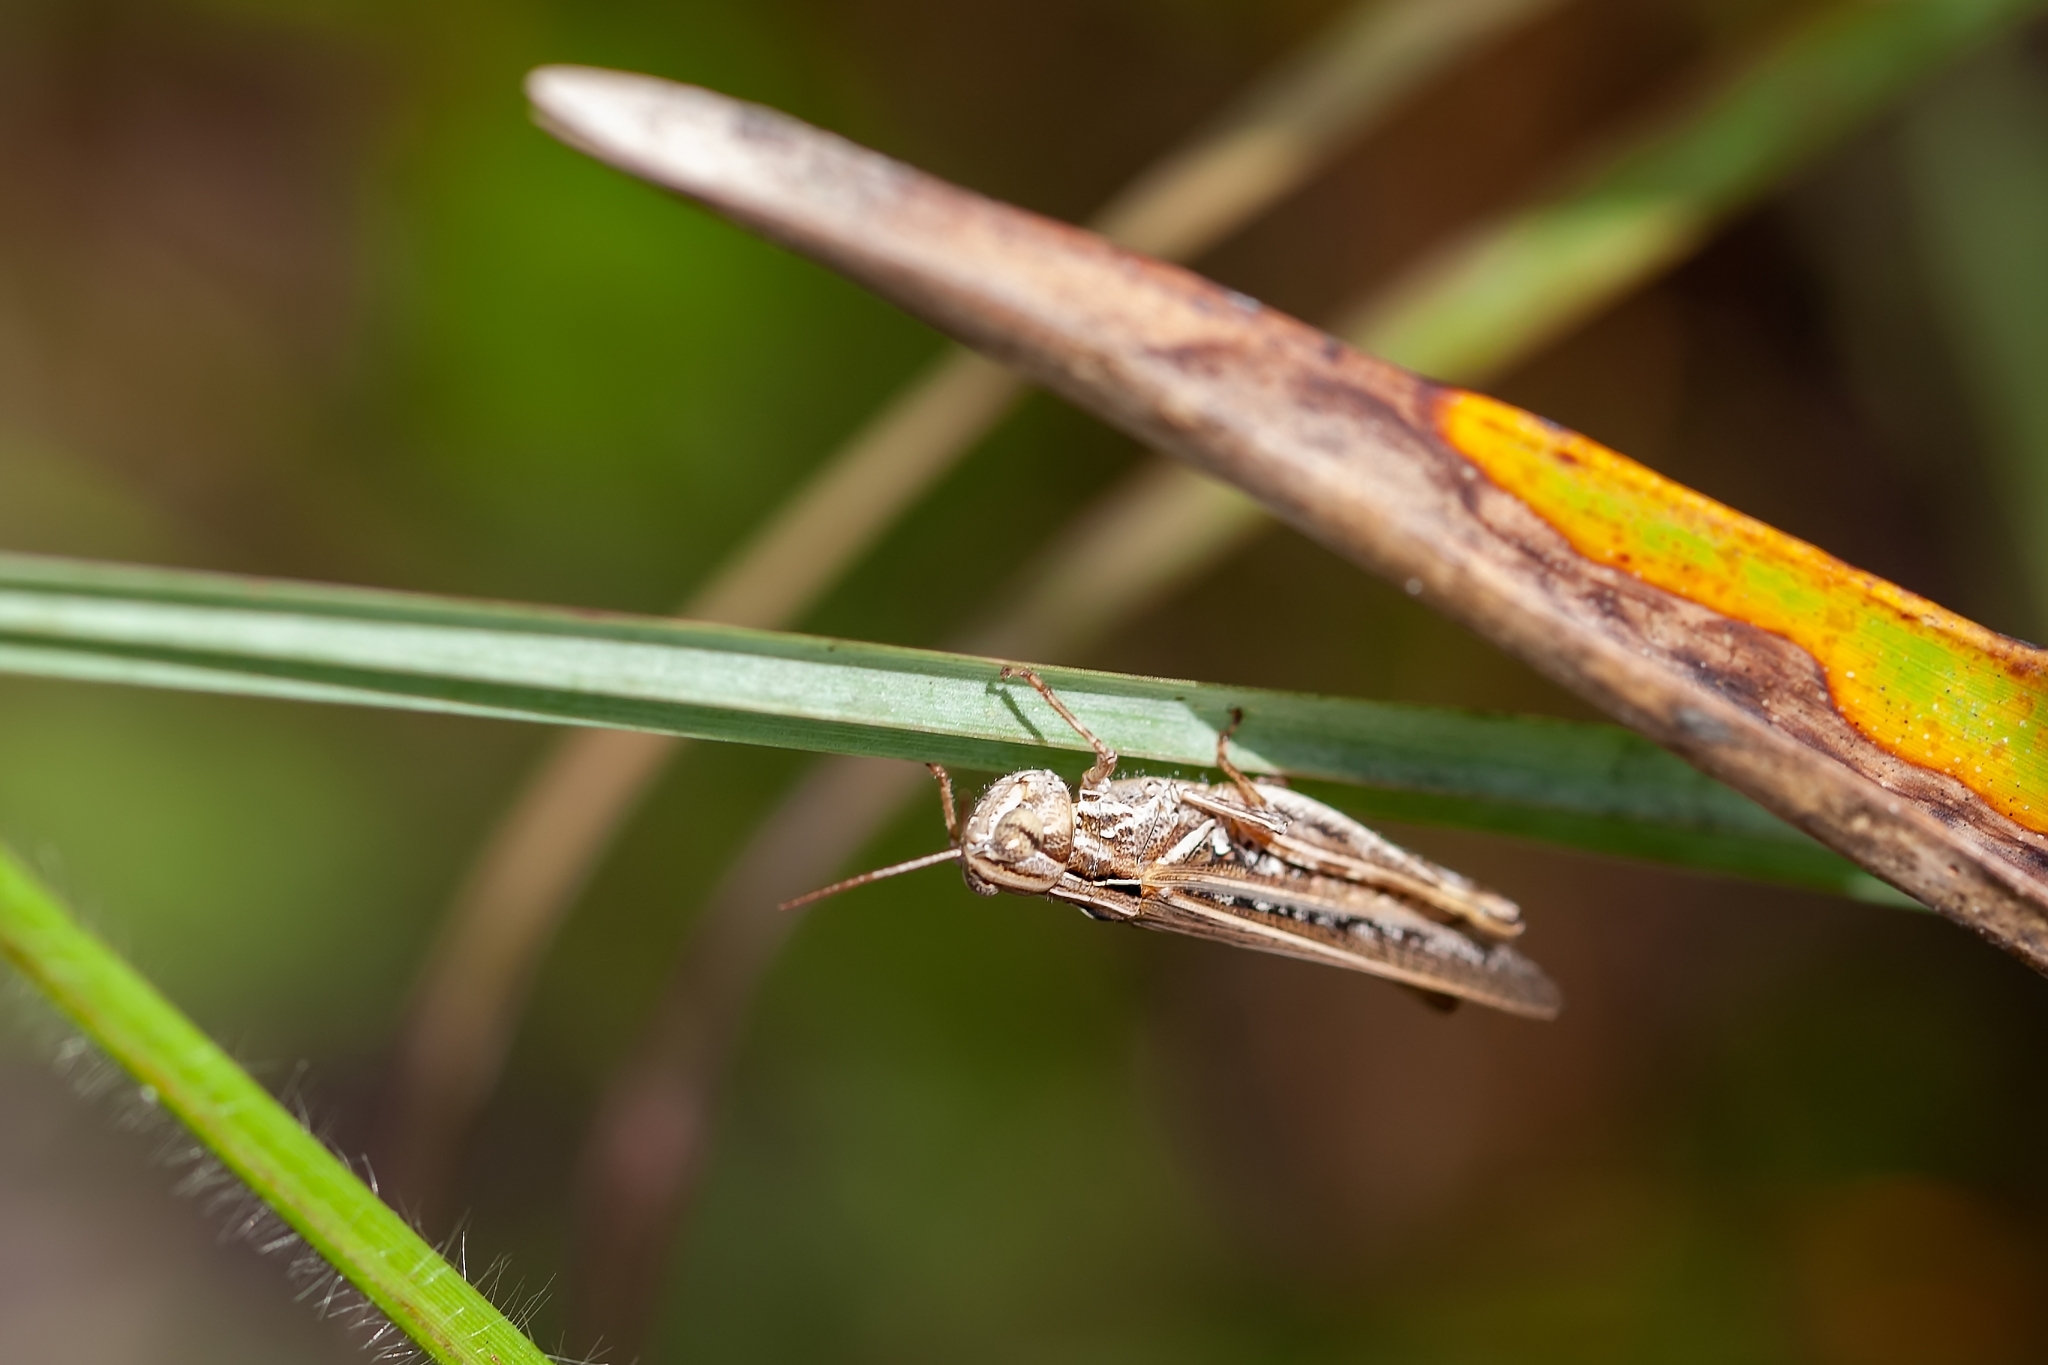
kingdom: Animalia
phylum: Arthropoda
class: Insecta
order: Orthoptera
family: Acrididae
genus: Orphulella
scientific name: Orphulella pelidna
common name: Spotted-wing grasshopper
